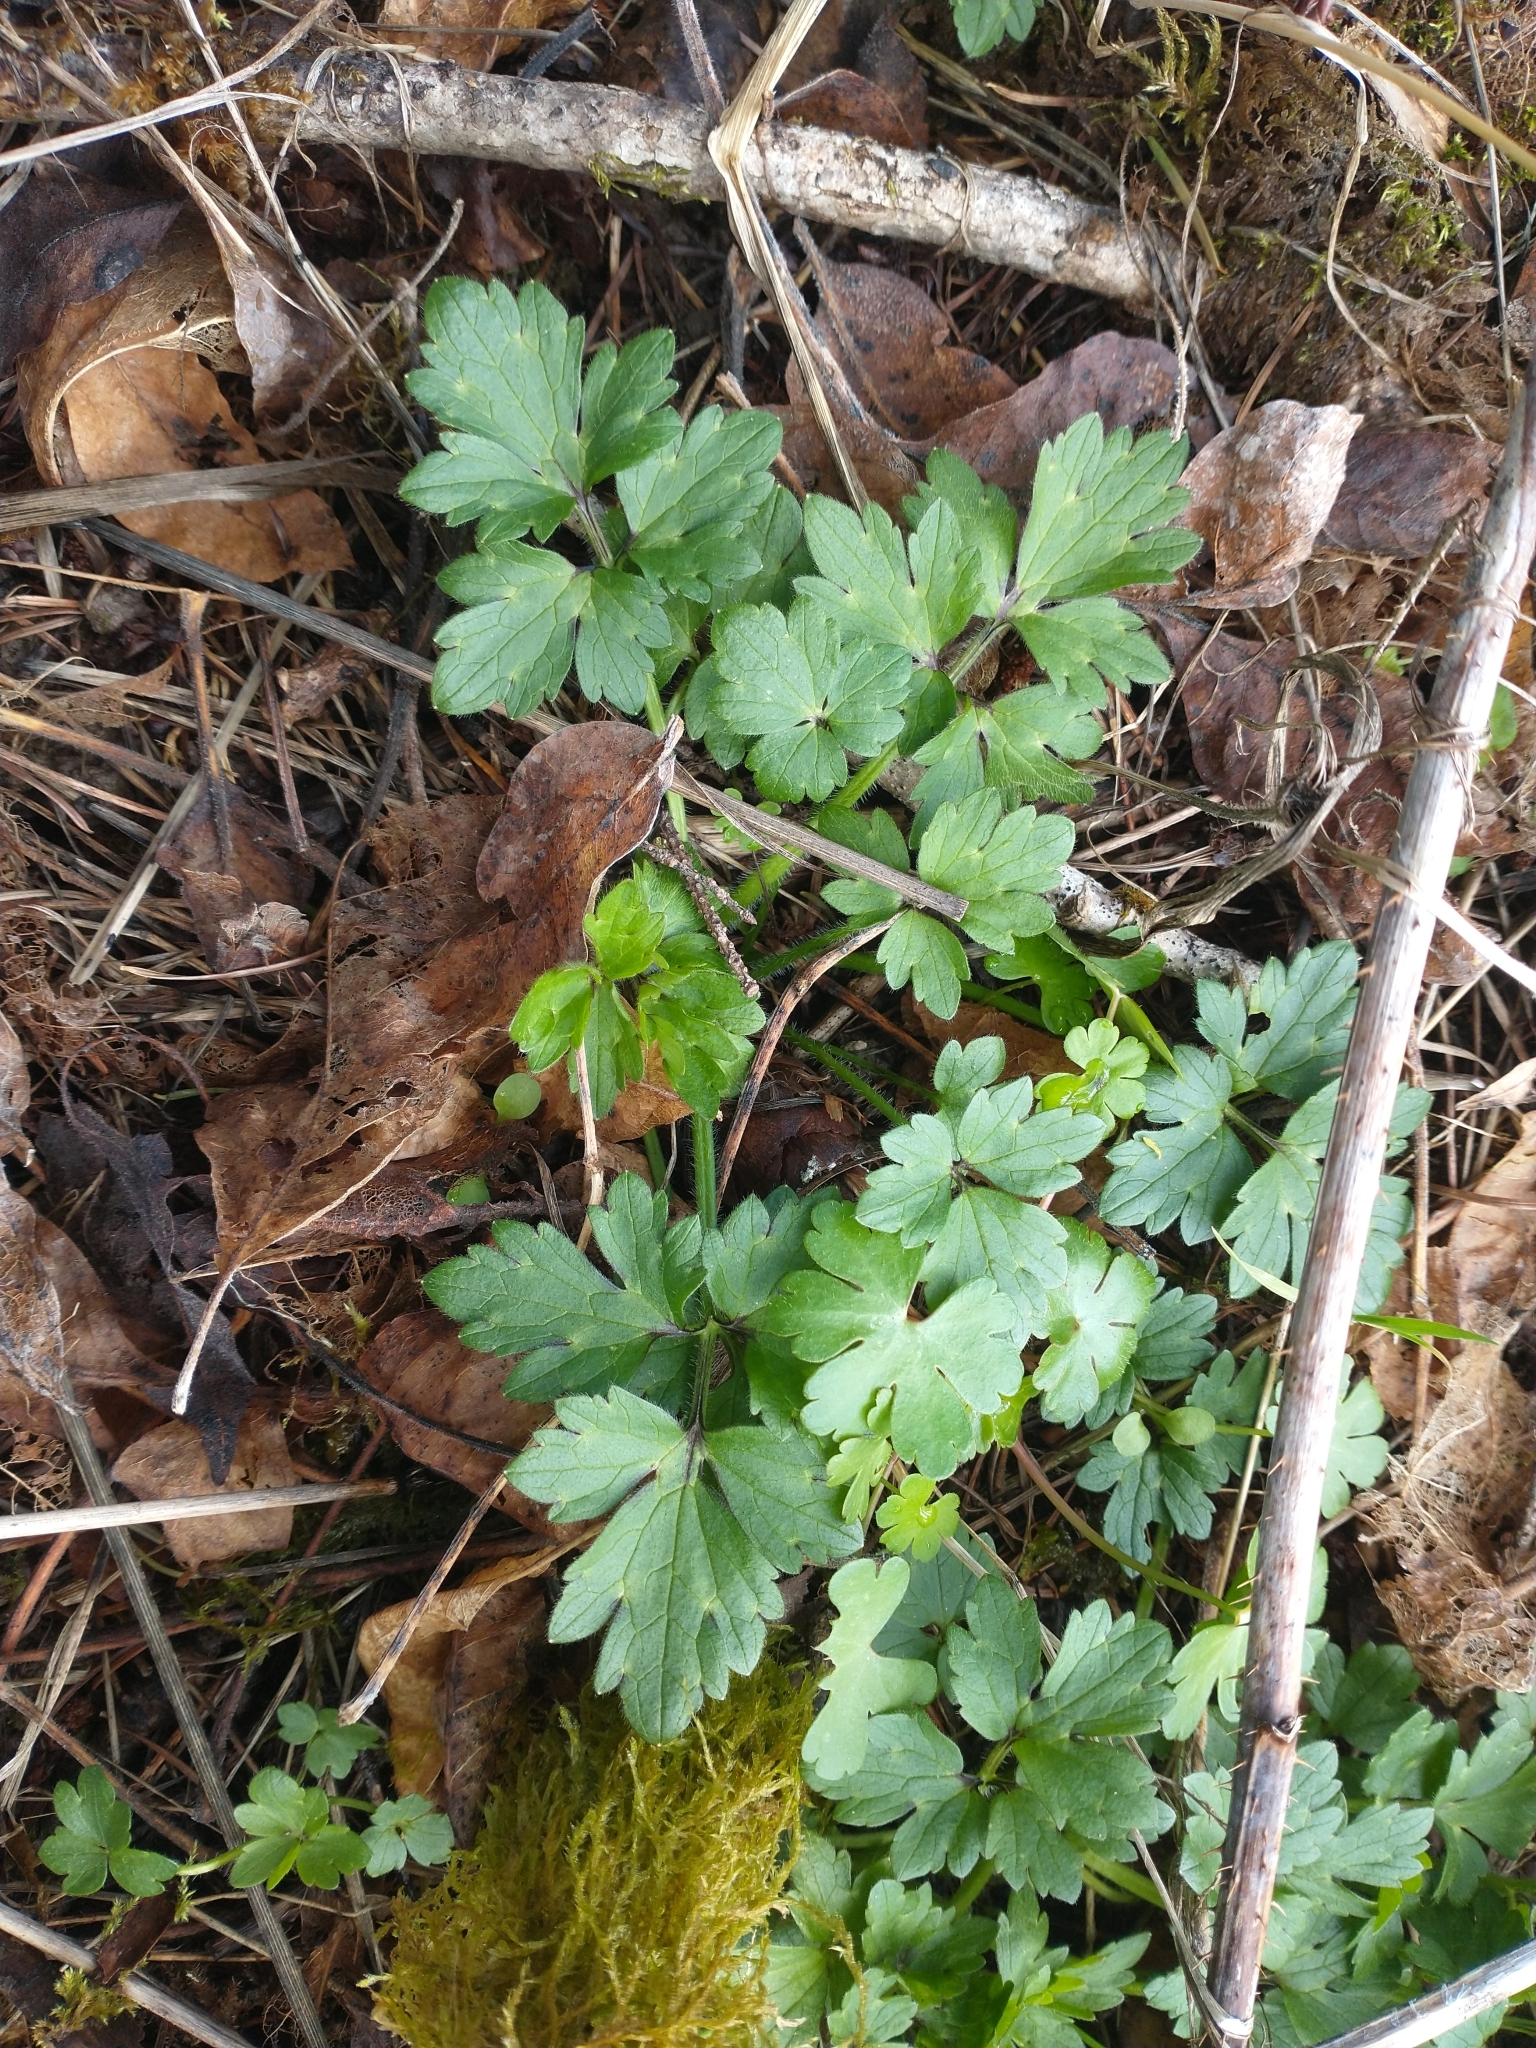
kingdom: Plantae
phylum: Tracheophyta
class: Magnoliopsida
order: Ranunculales
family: Ranunculaceae
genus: Ranunculus
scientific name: Ranunculus repens
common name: Creeping buttercup
